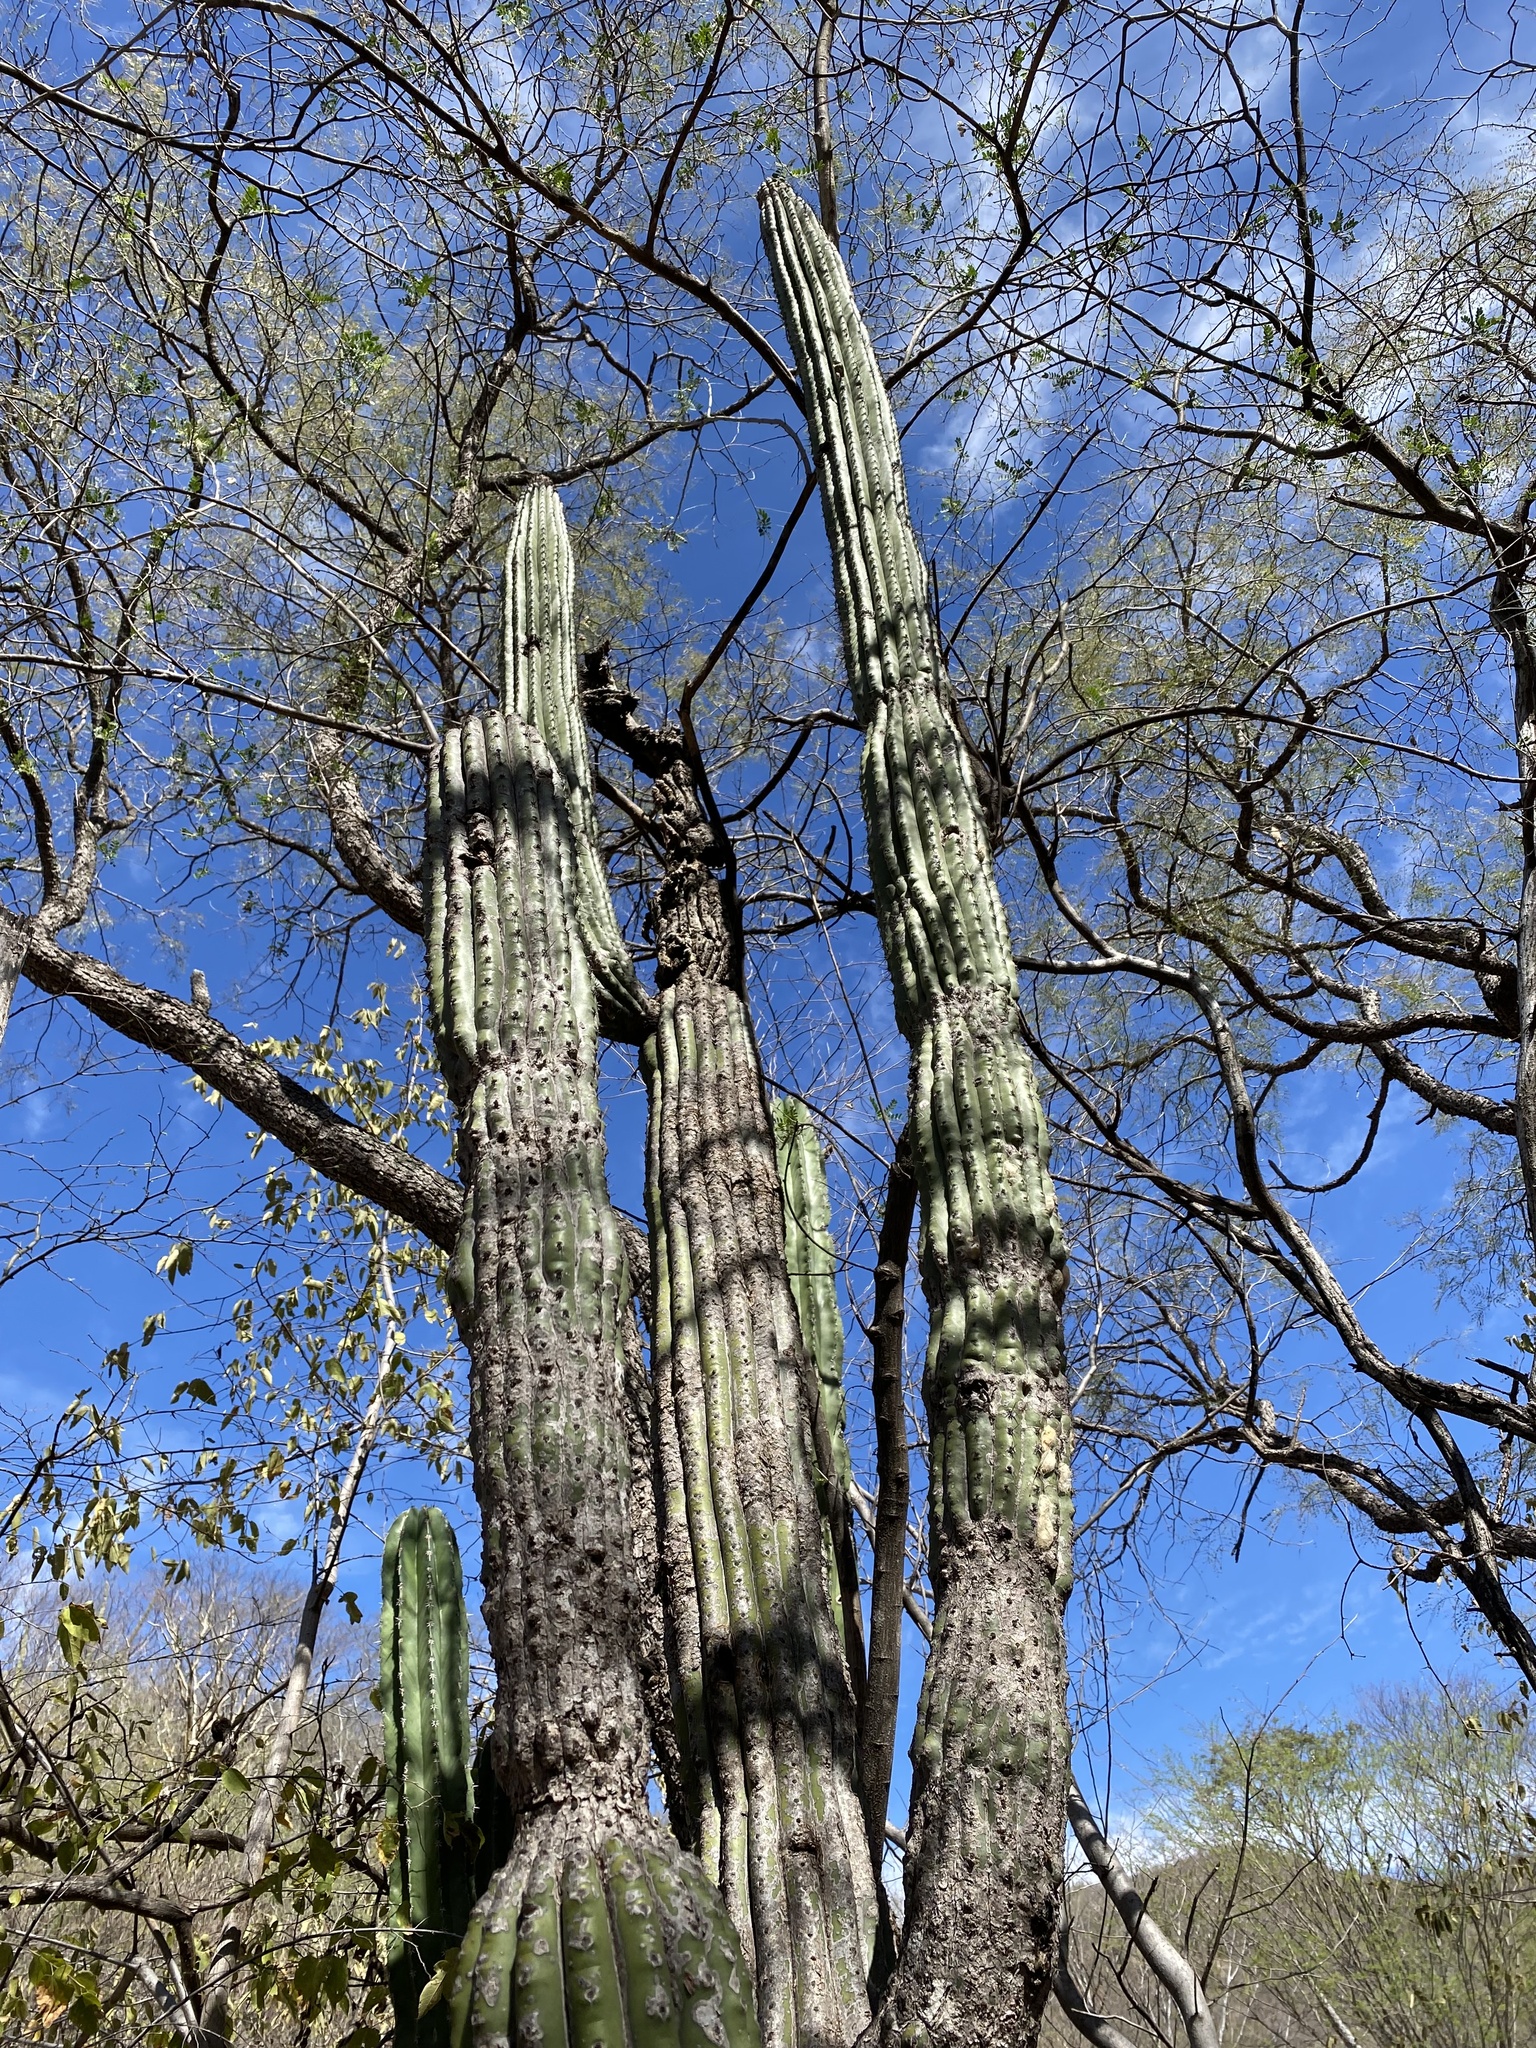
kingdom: Plantae
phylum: Tracheophyta
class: Magnoliopsida
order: Caryophyllales
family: Cactaceae
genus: Stenocereus
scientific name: Stenocereus thurberi
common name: Organ pipe cactus
